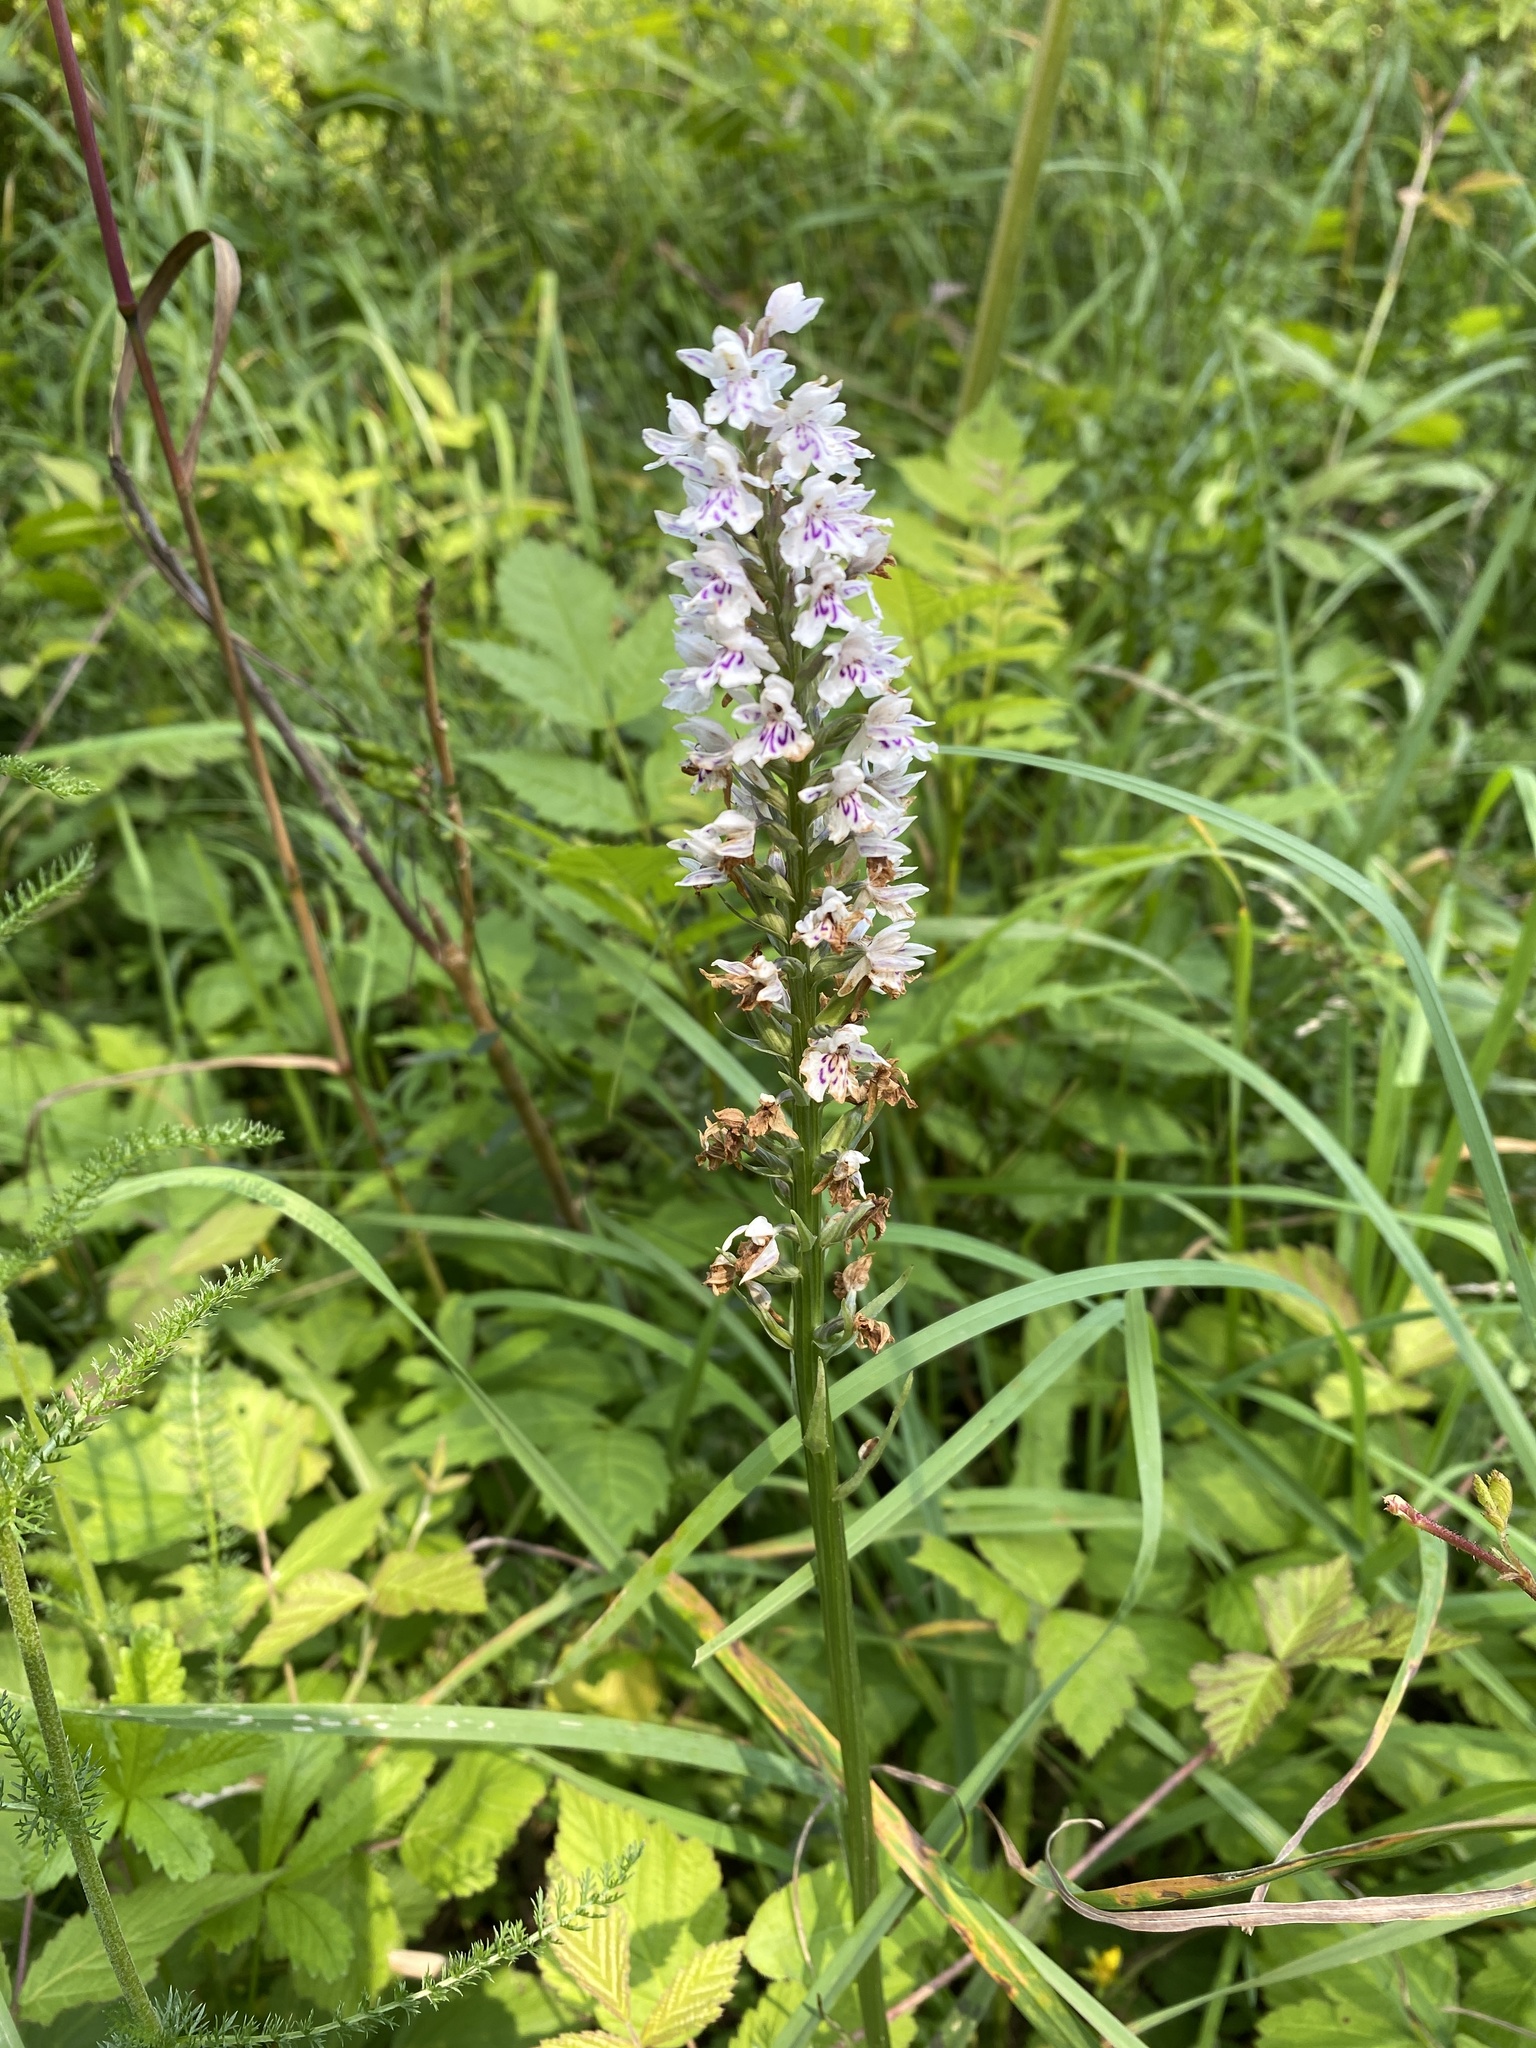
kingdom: Plantae
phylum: Tracheophyta
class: Liliopsida
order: Asparagales
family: Orchidaceae
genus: Dactylorhiza
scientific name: Dactylorhiza maculata
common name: Heath spotted-orchid
